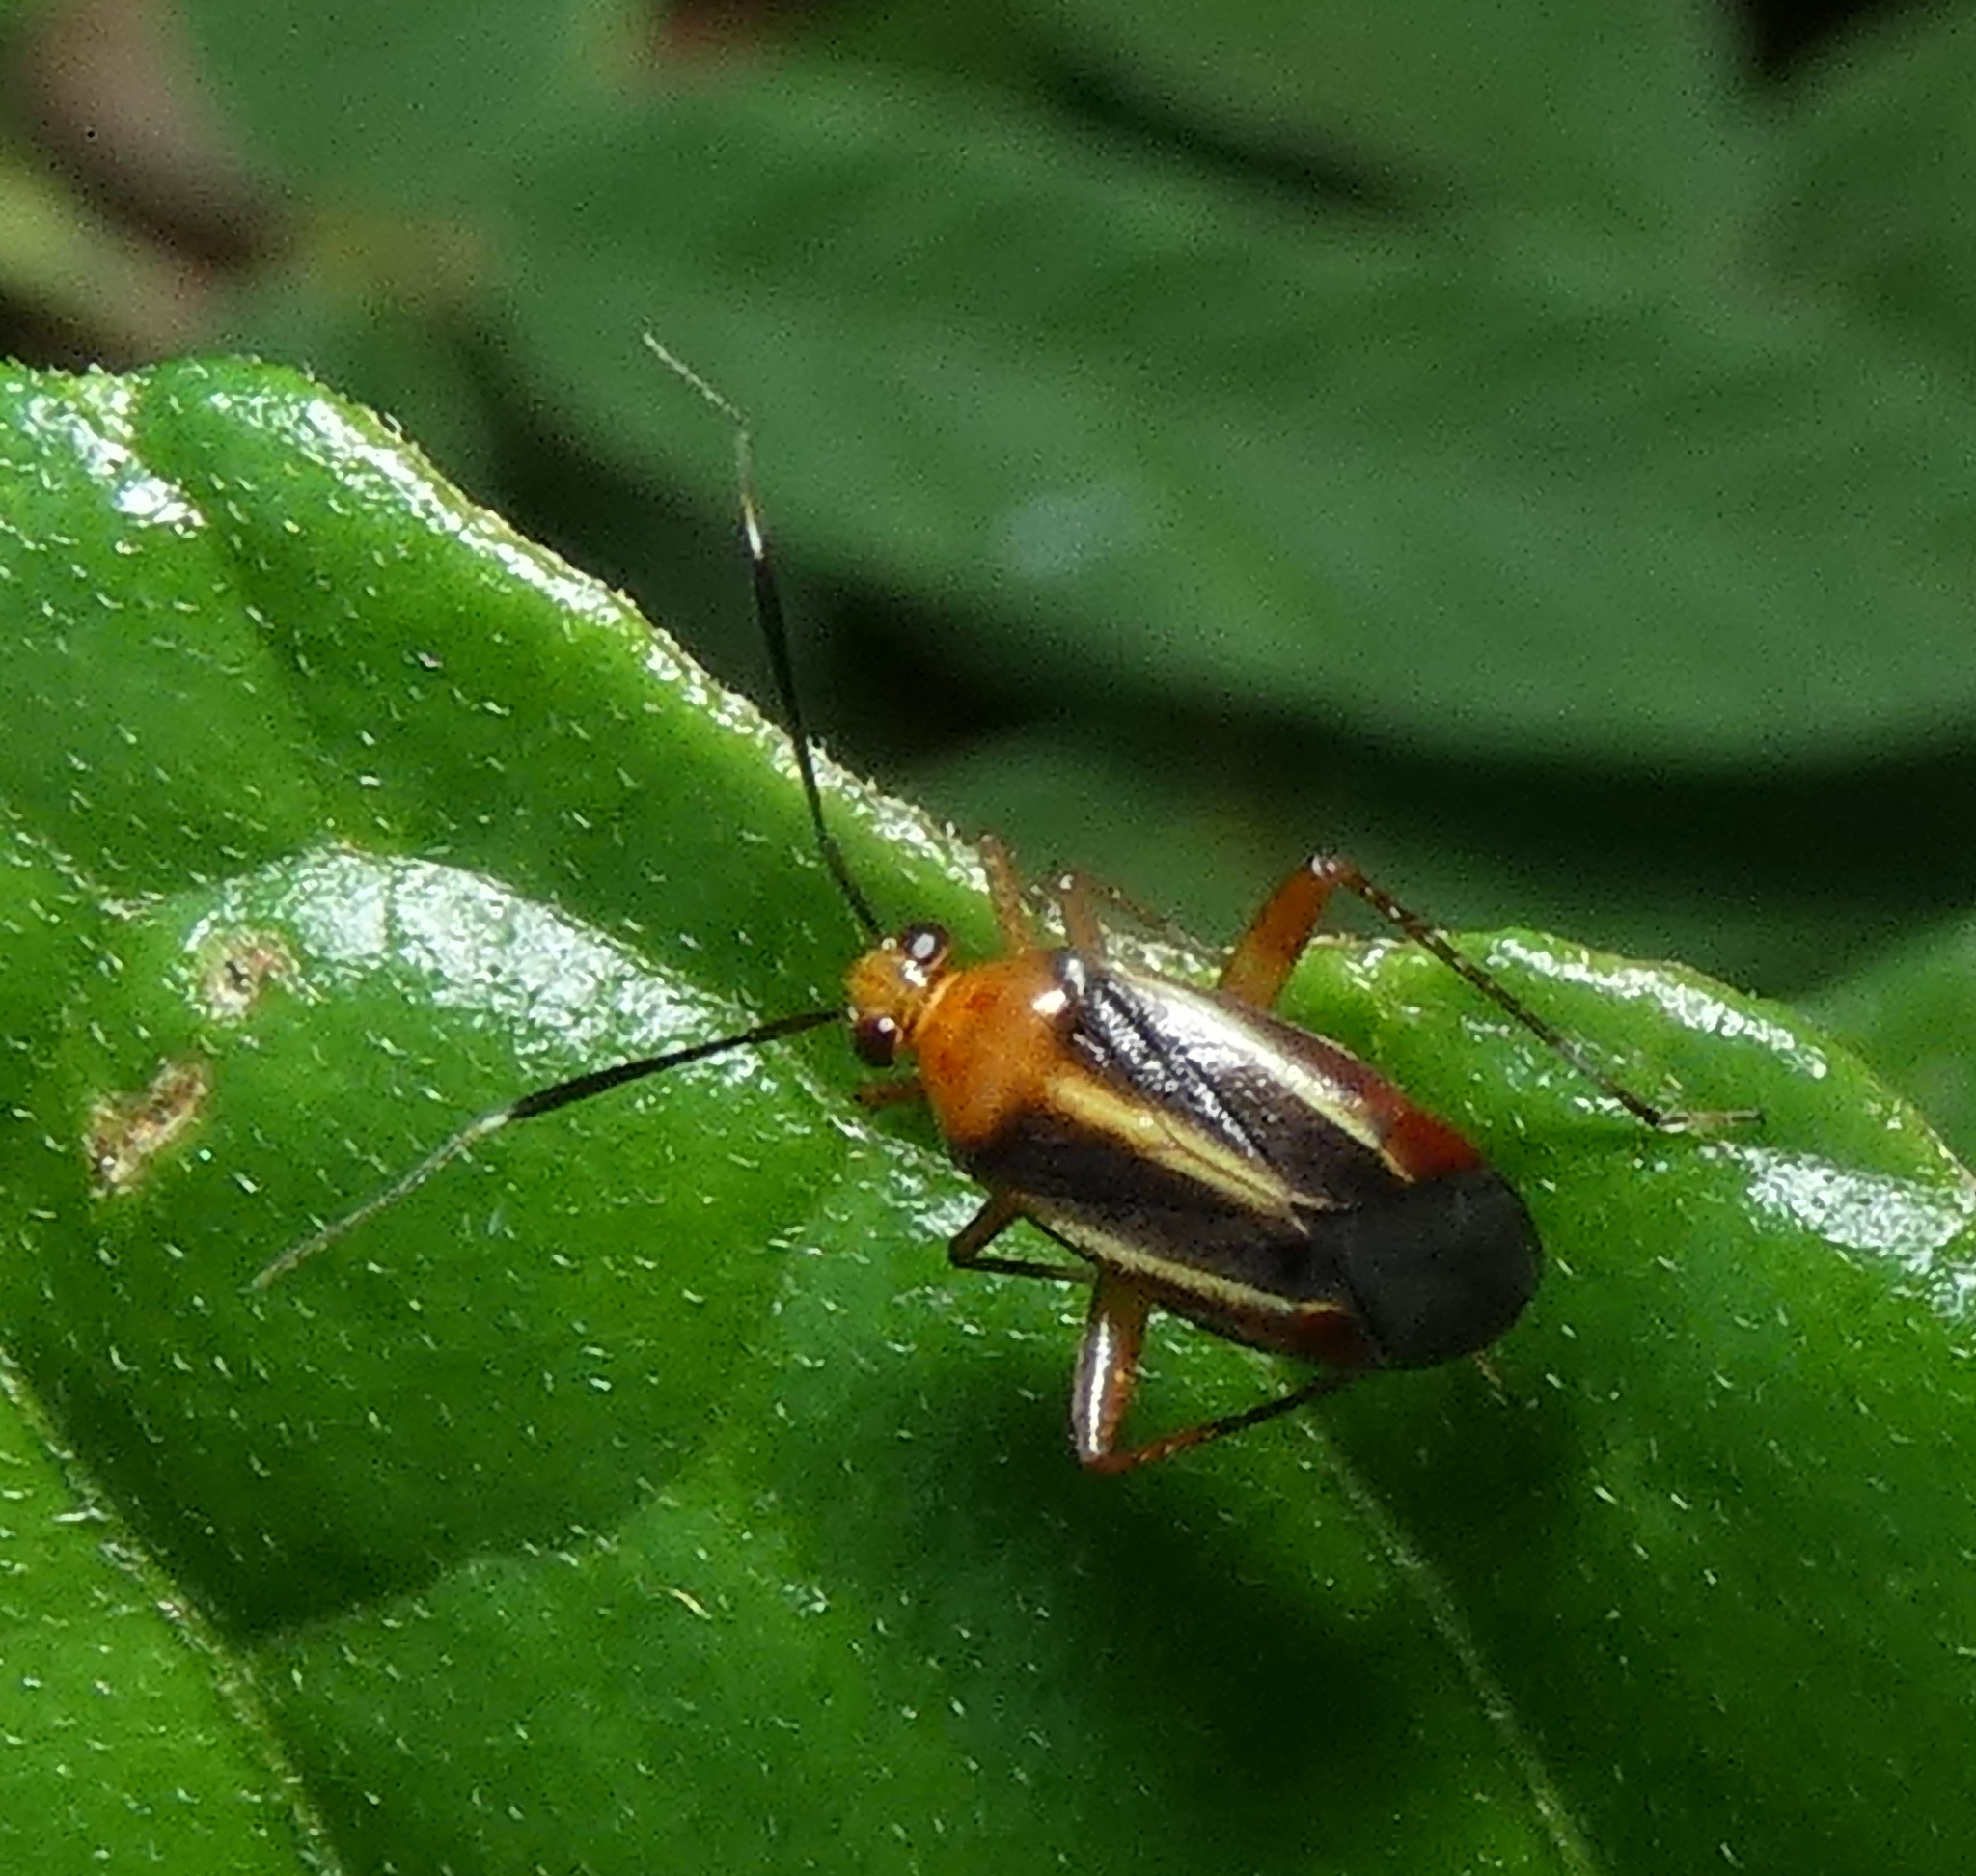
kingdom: Animalia
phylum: Arthropoda
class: Insecta
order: Hemiptera
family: Miridae
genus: Horciasinus
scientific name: Horciasinus signoreti
